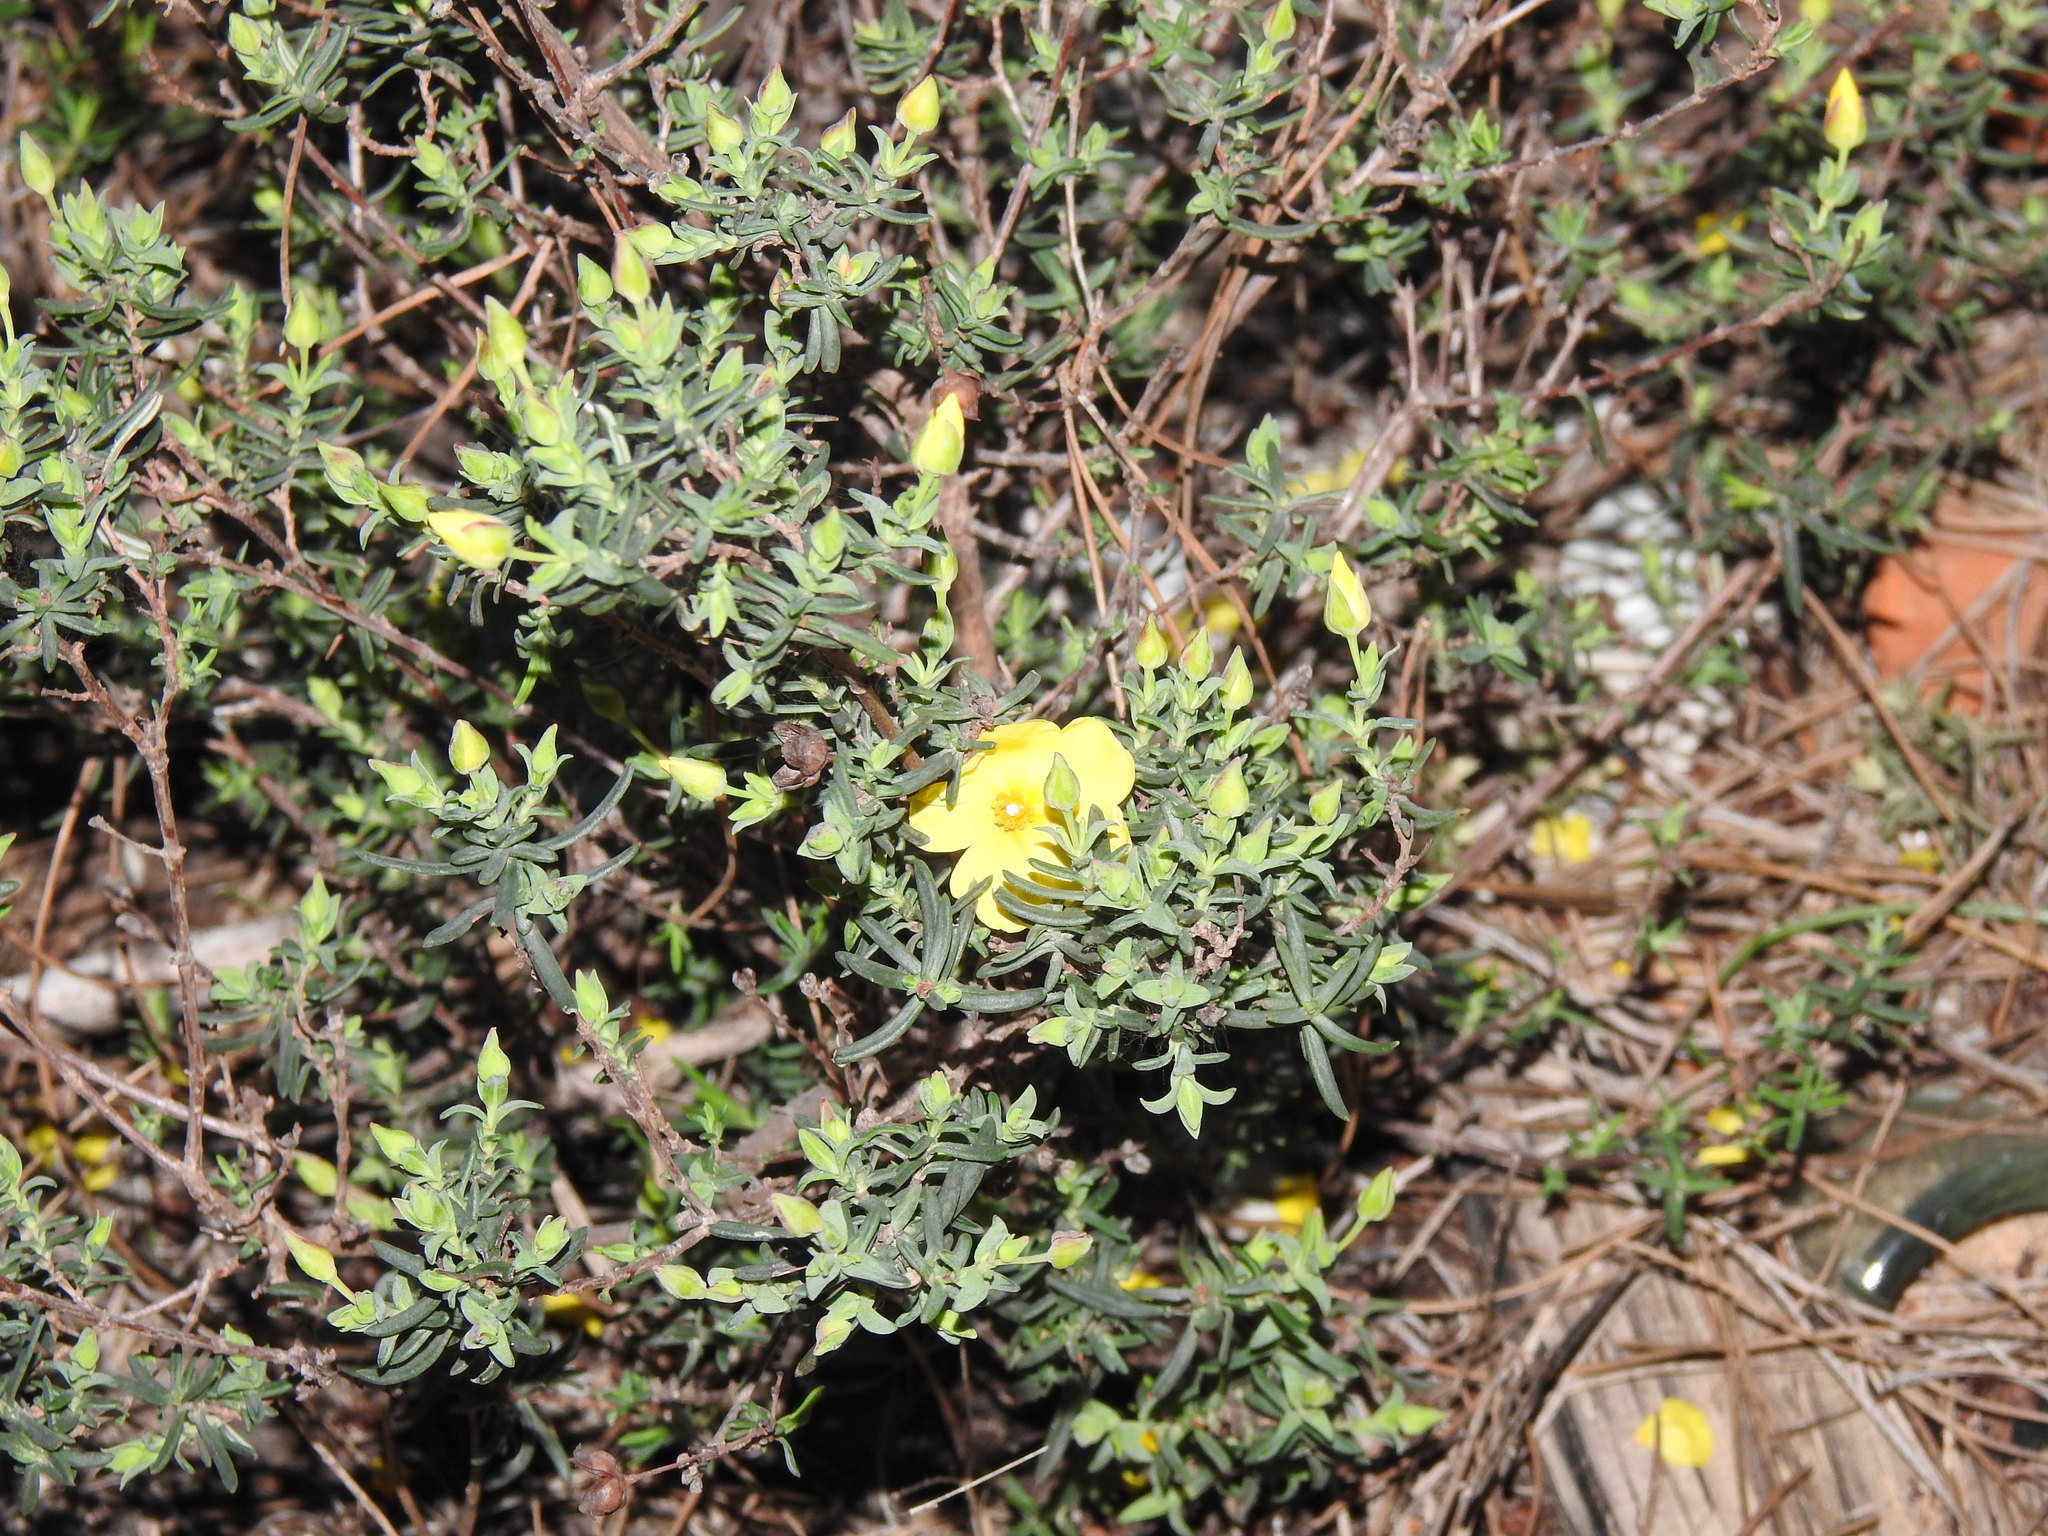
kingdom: Plantae
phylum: Tracheophyta
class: Magnoliopsida
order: Malvales
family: Cistaceae
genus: Halimium
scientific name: Halimium calycinum
